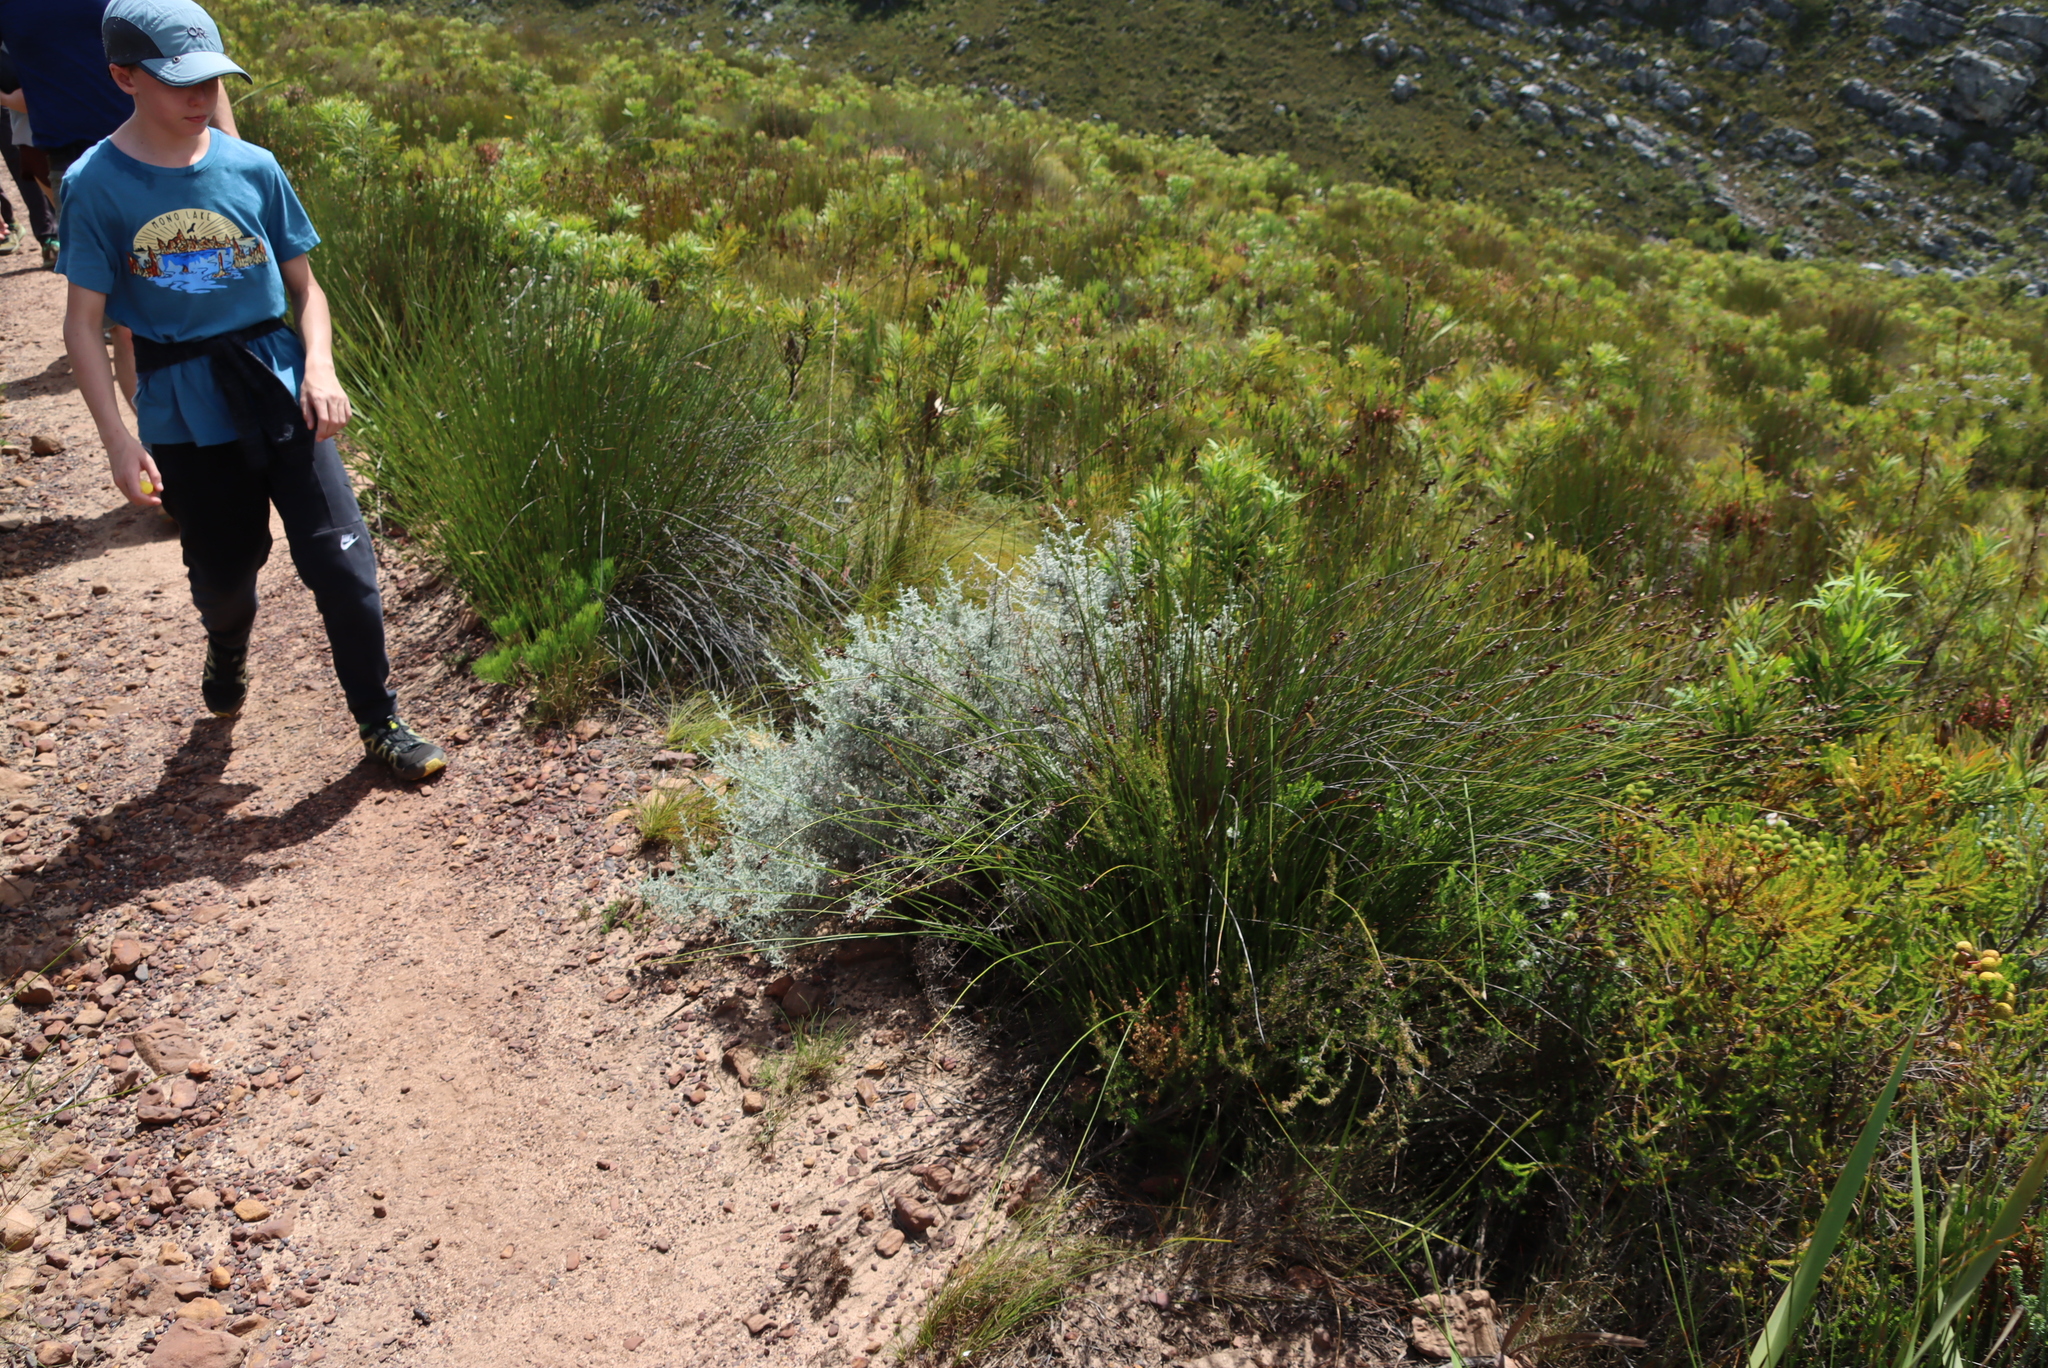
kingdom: Plantae
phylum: Tracheophyta
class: Magnoliopsida
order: Asterales
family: Asteraceae
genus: Seriphium
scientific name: Seriphium plumosum
